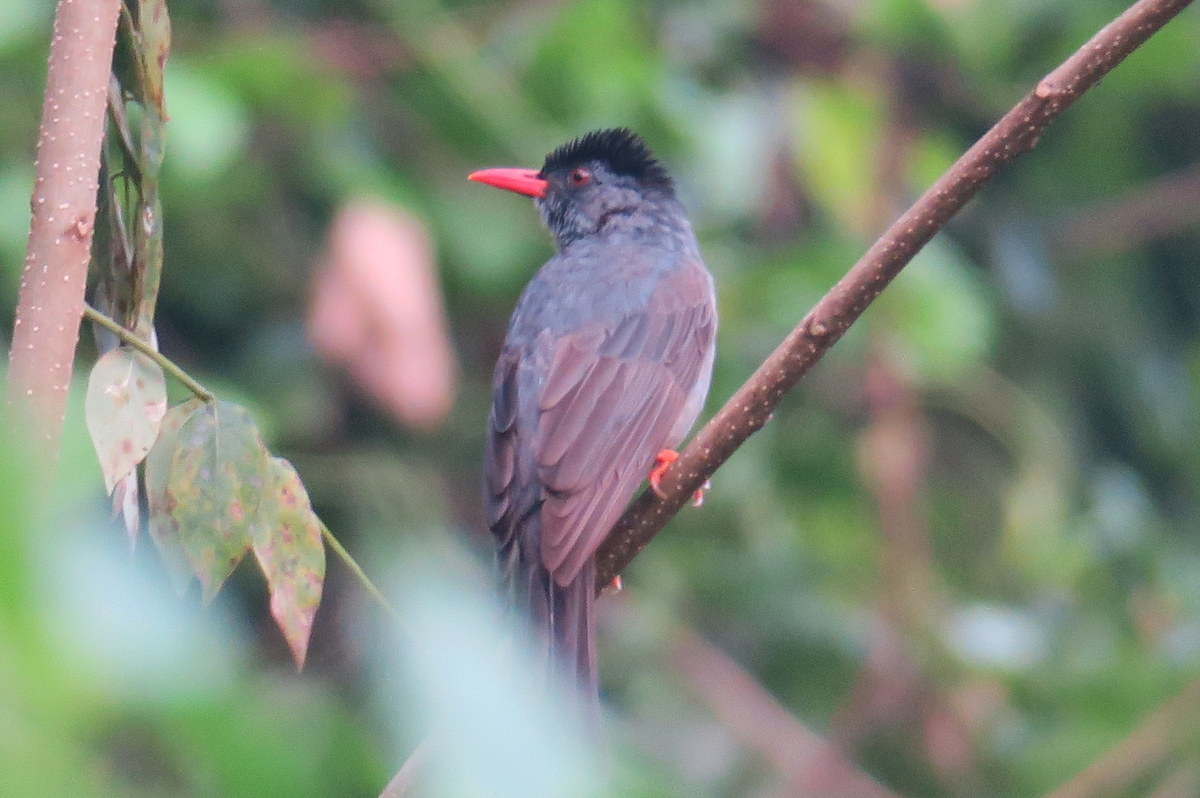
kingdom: Animalia
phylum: Chordata
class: Aves
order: Passeriformes
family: Pycnonotidae
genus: Hypsipetes
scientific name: Hypsipetes ganeesa
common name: Square-tailed bulbul
